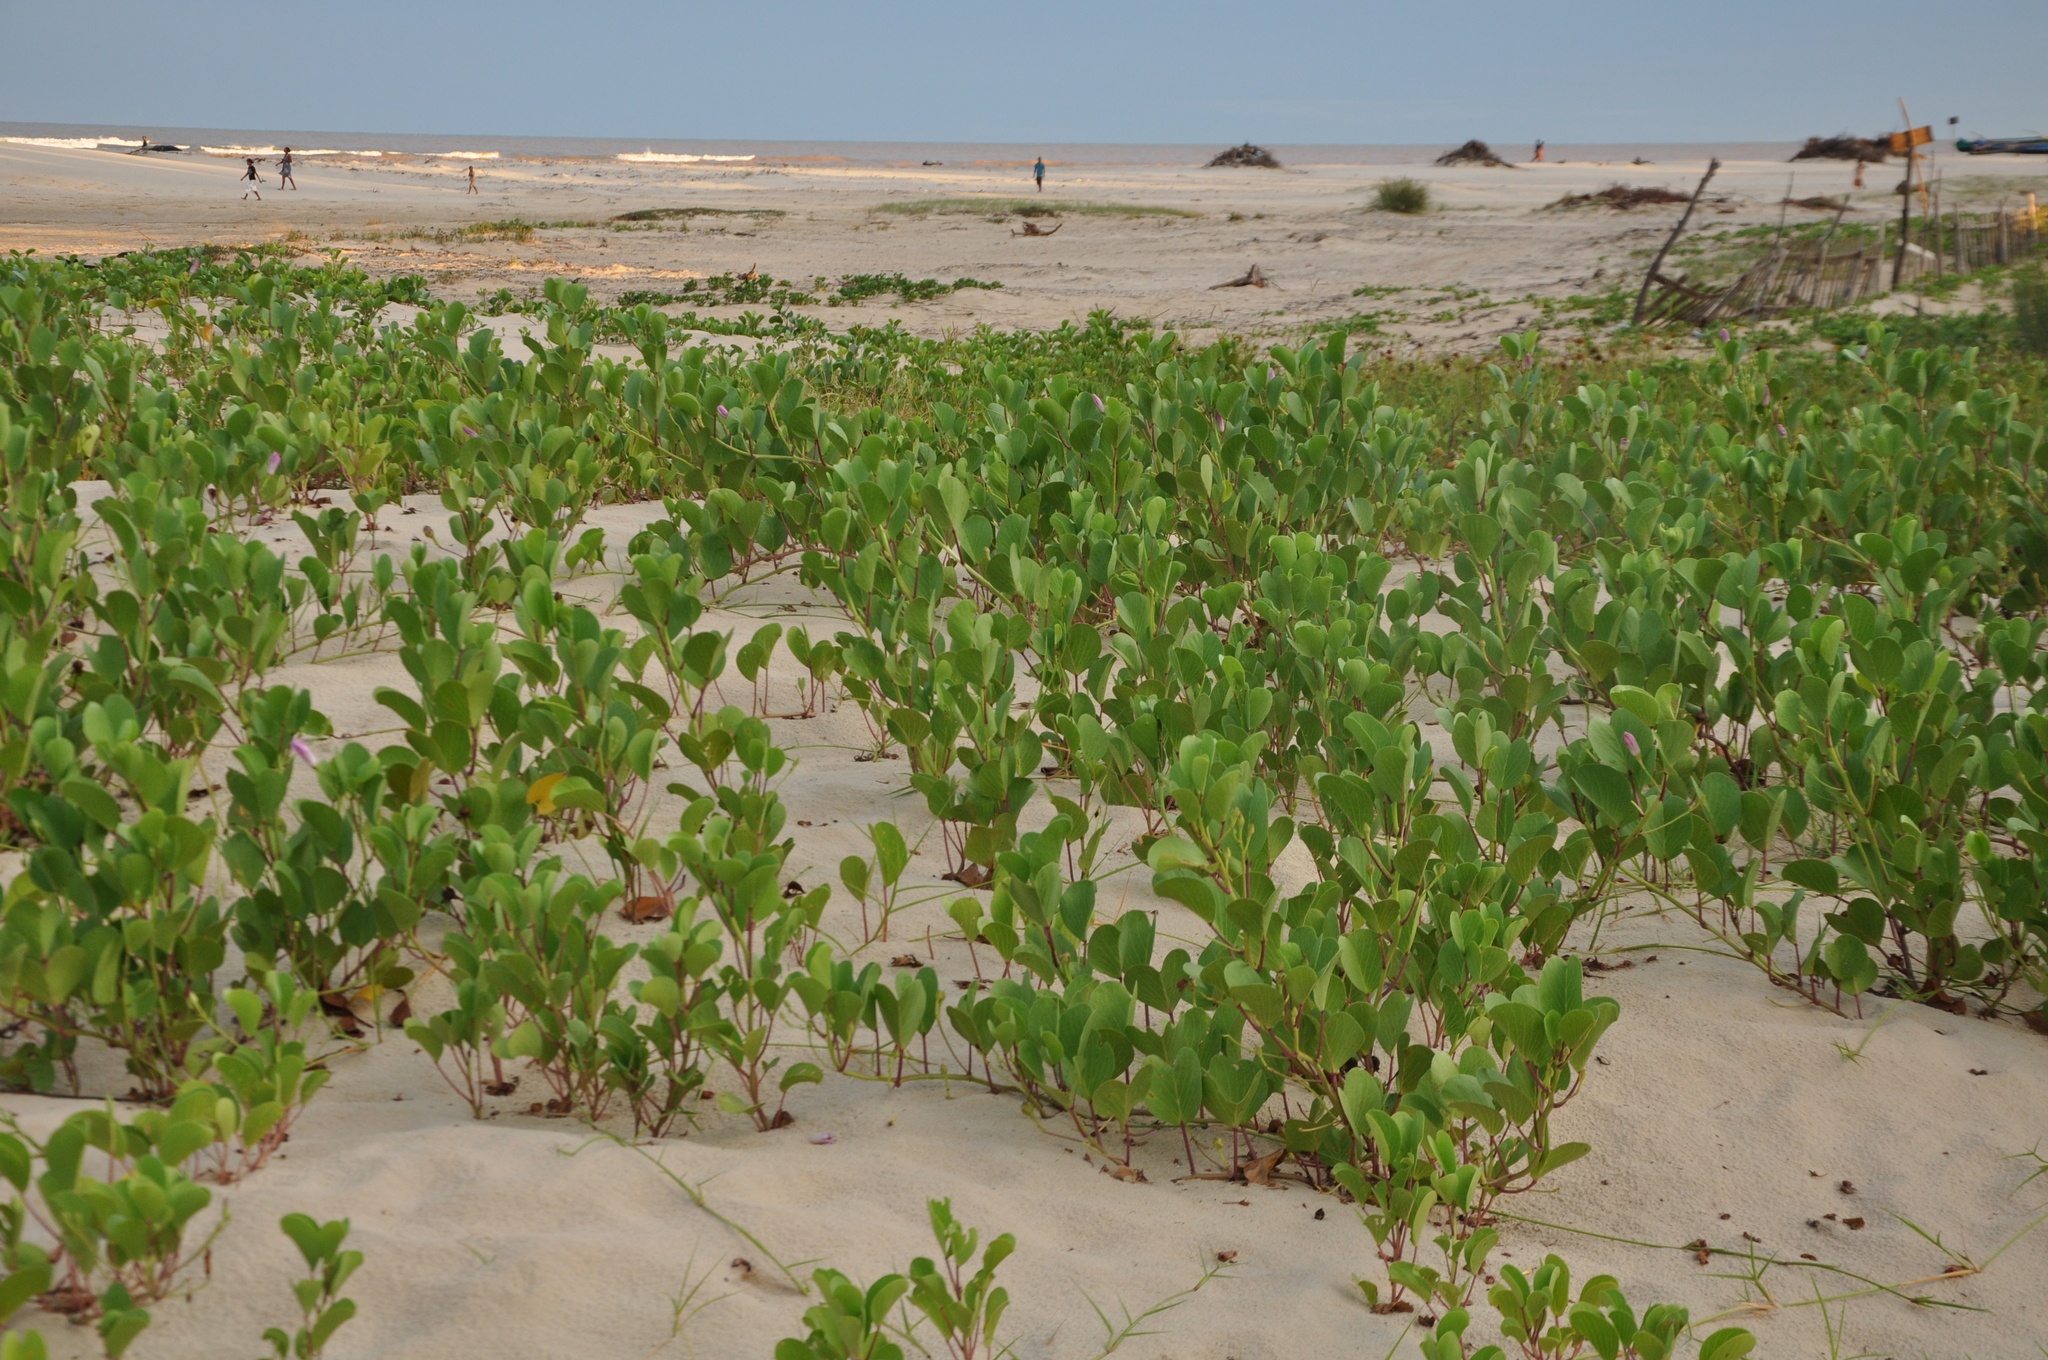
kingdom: Plantae
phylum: Tracheophyta
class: Magnoliopsida
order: Solanales
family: Convolvulaceae
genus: Ipomoea
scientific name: Ipomoea pes-caprae
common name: Beach morning glory
